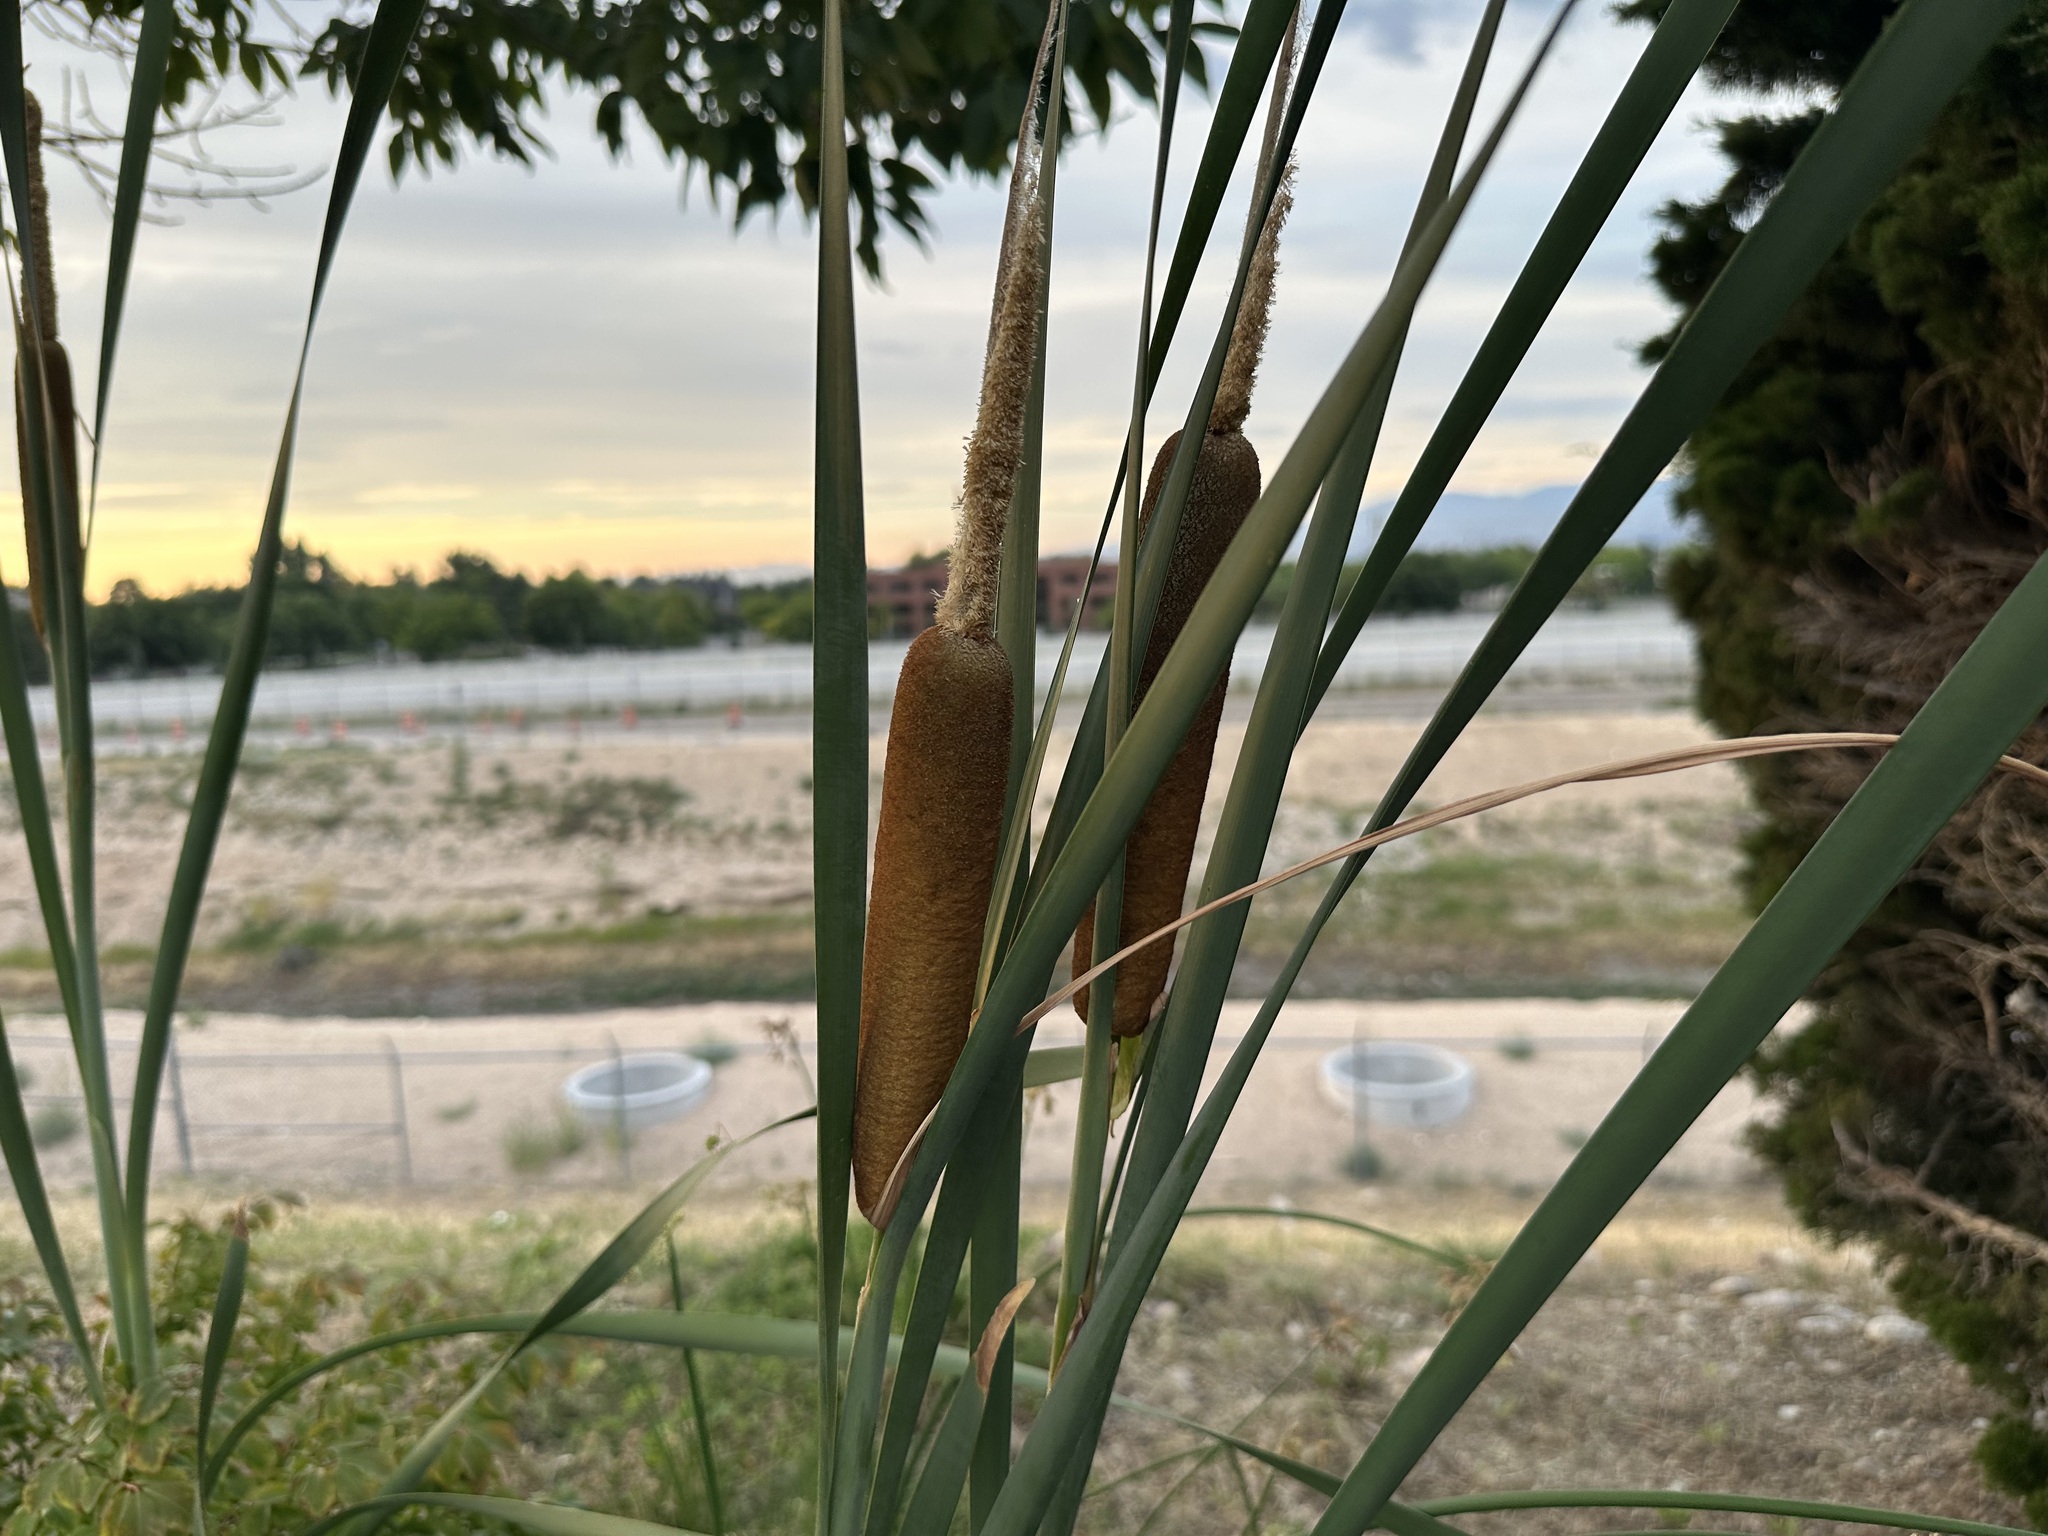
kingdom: Plantae
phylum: Tracheophyta
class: Liliopsida
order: Poales
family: Typhaceae
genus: Typha
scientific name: Typha latifolia
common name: Broadleaf cattail
